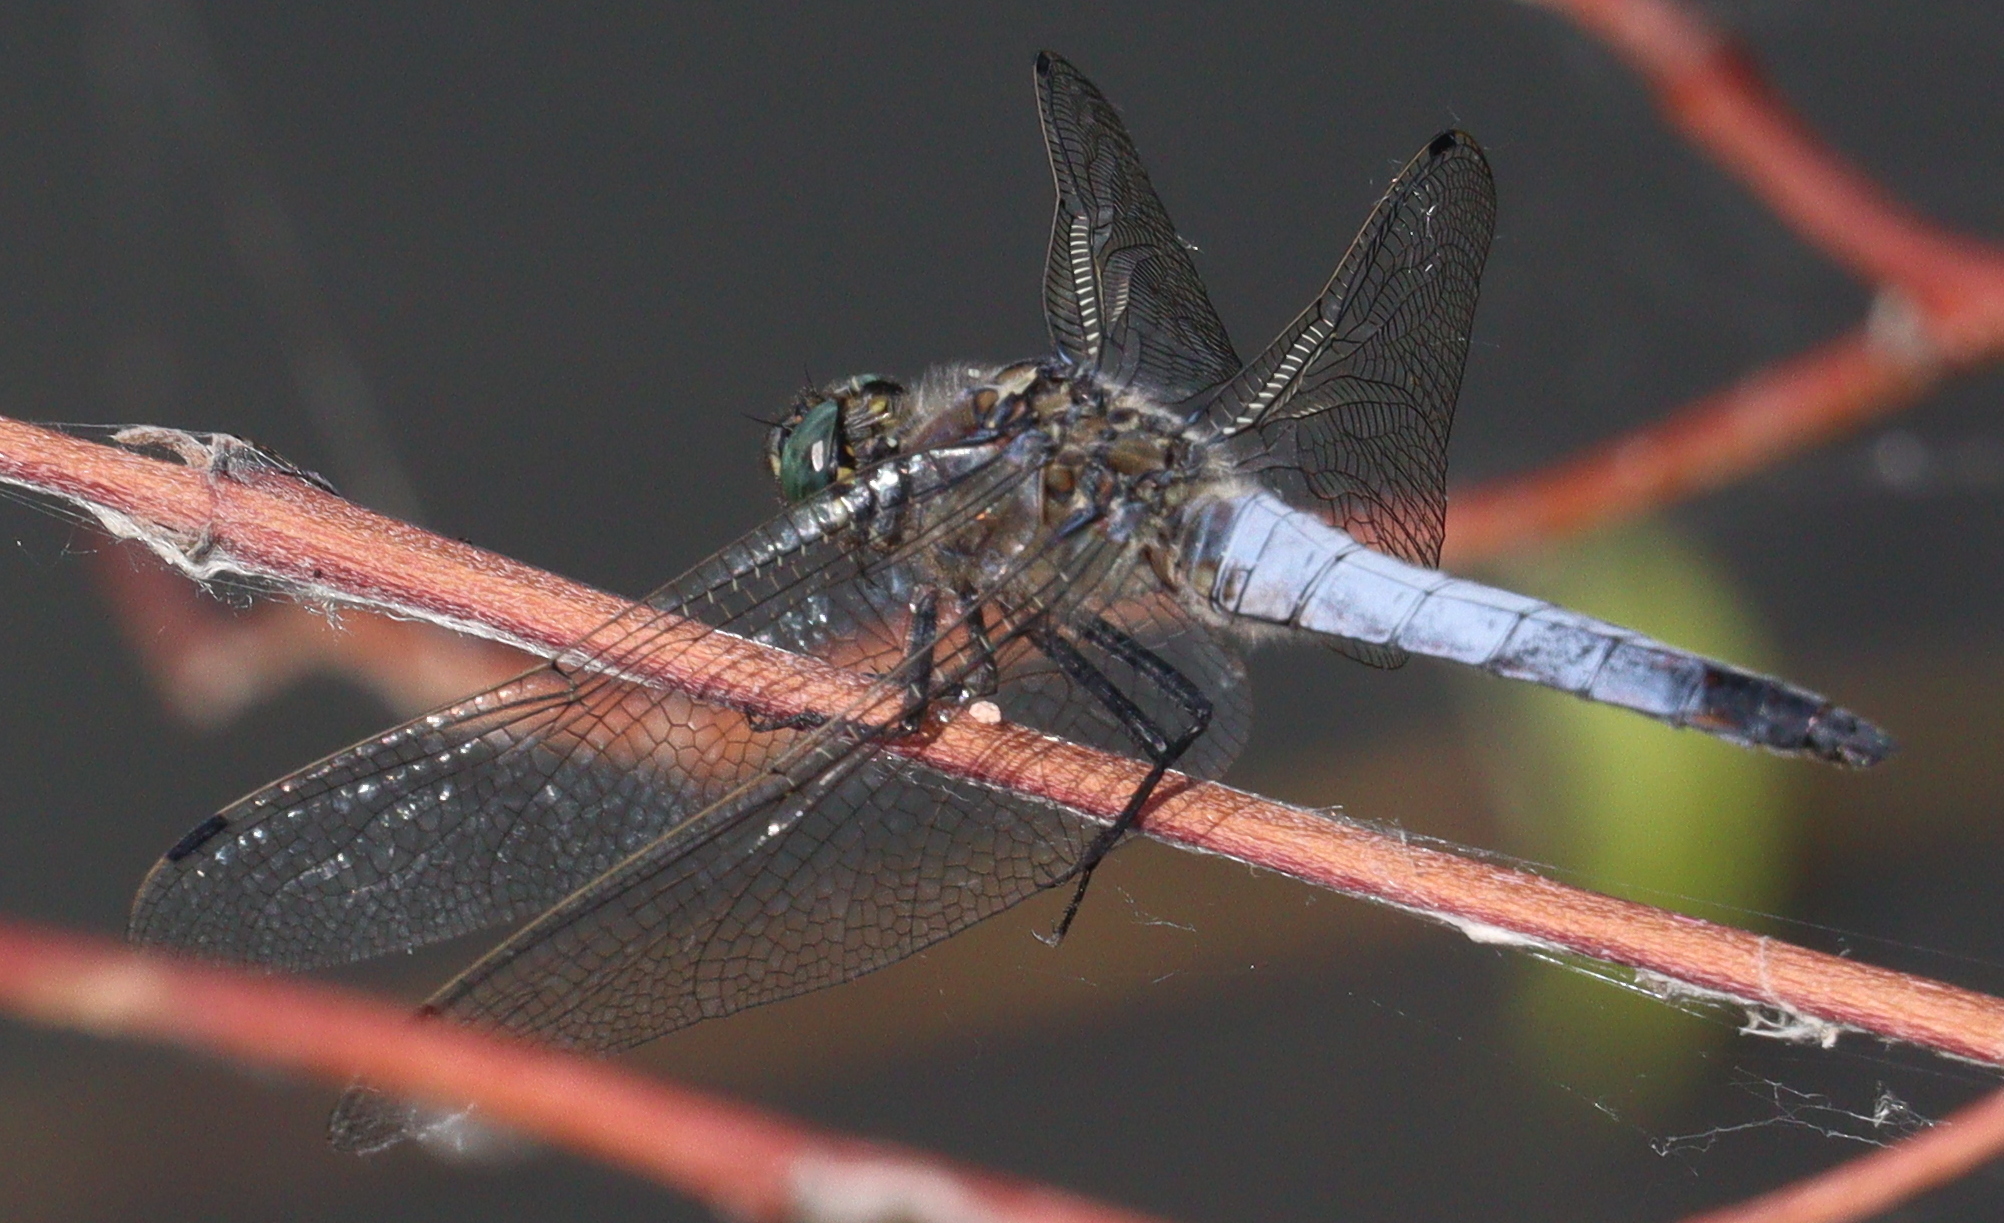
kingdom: Animalia
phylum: Arthropoda
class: Insecta
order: Odonata
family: Libellulidae
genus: Orthetrum
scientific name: Orthetrum cancellatum
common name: Black-tailed skimmer
